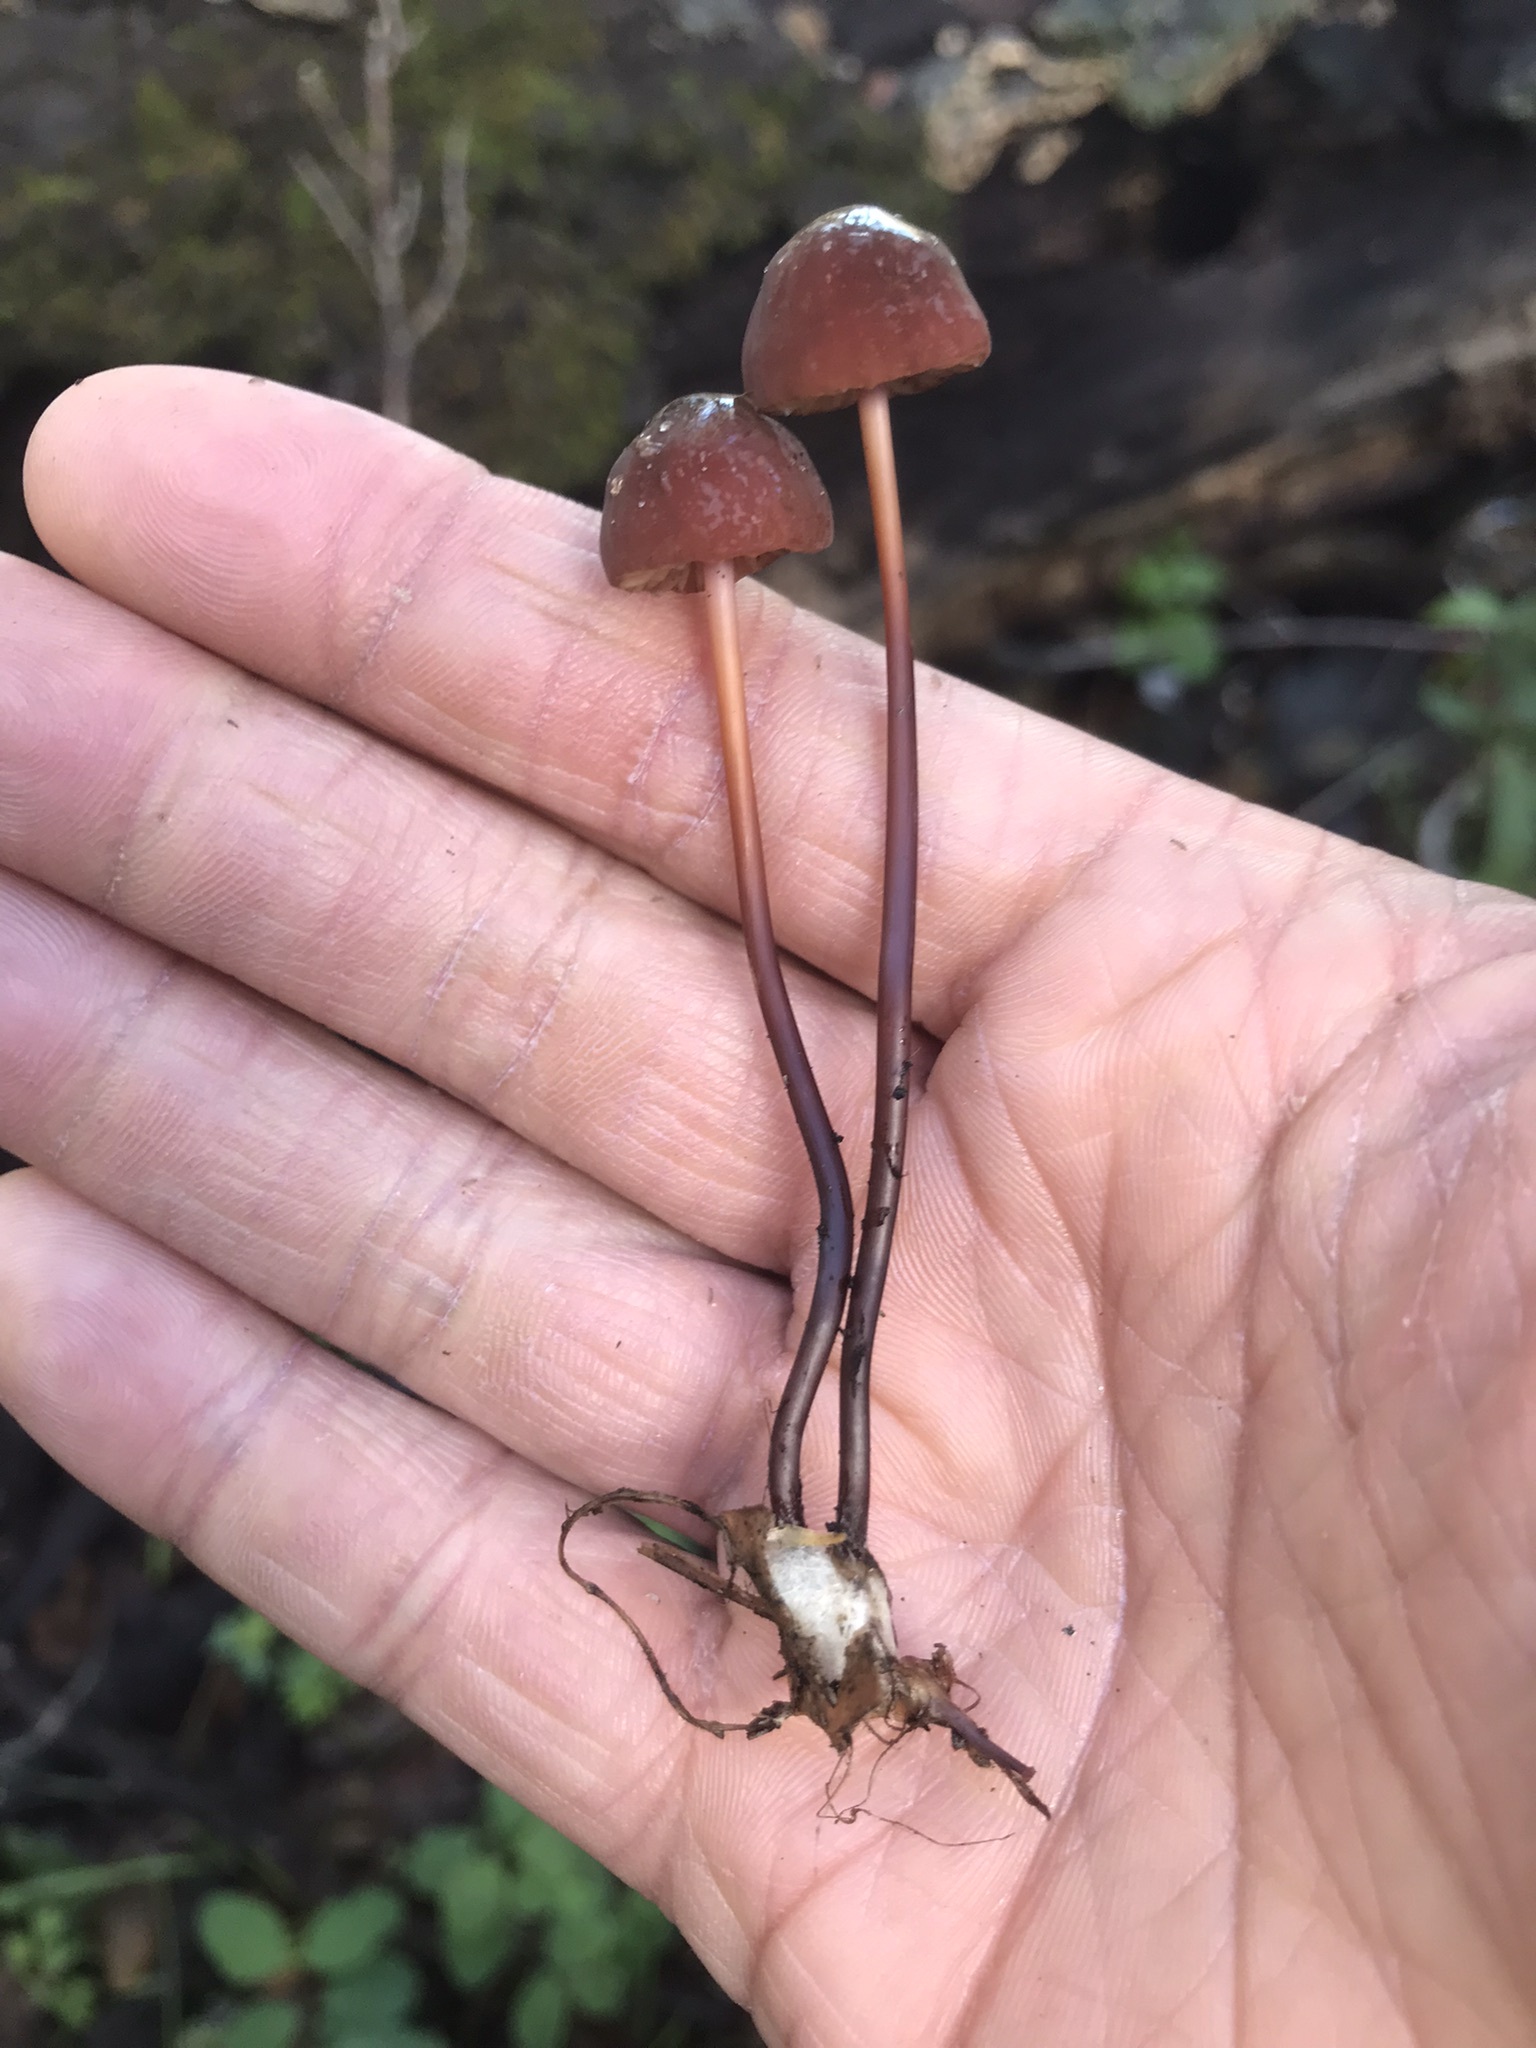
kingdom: Fungi
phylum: Basidiomycota
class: Agaricomycetes
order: Agaricales
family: Marasmiaceae
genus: Marasmius
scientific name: Marasmius plicatulus
